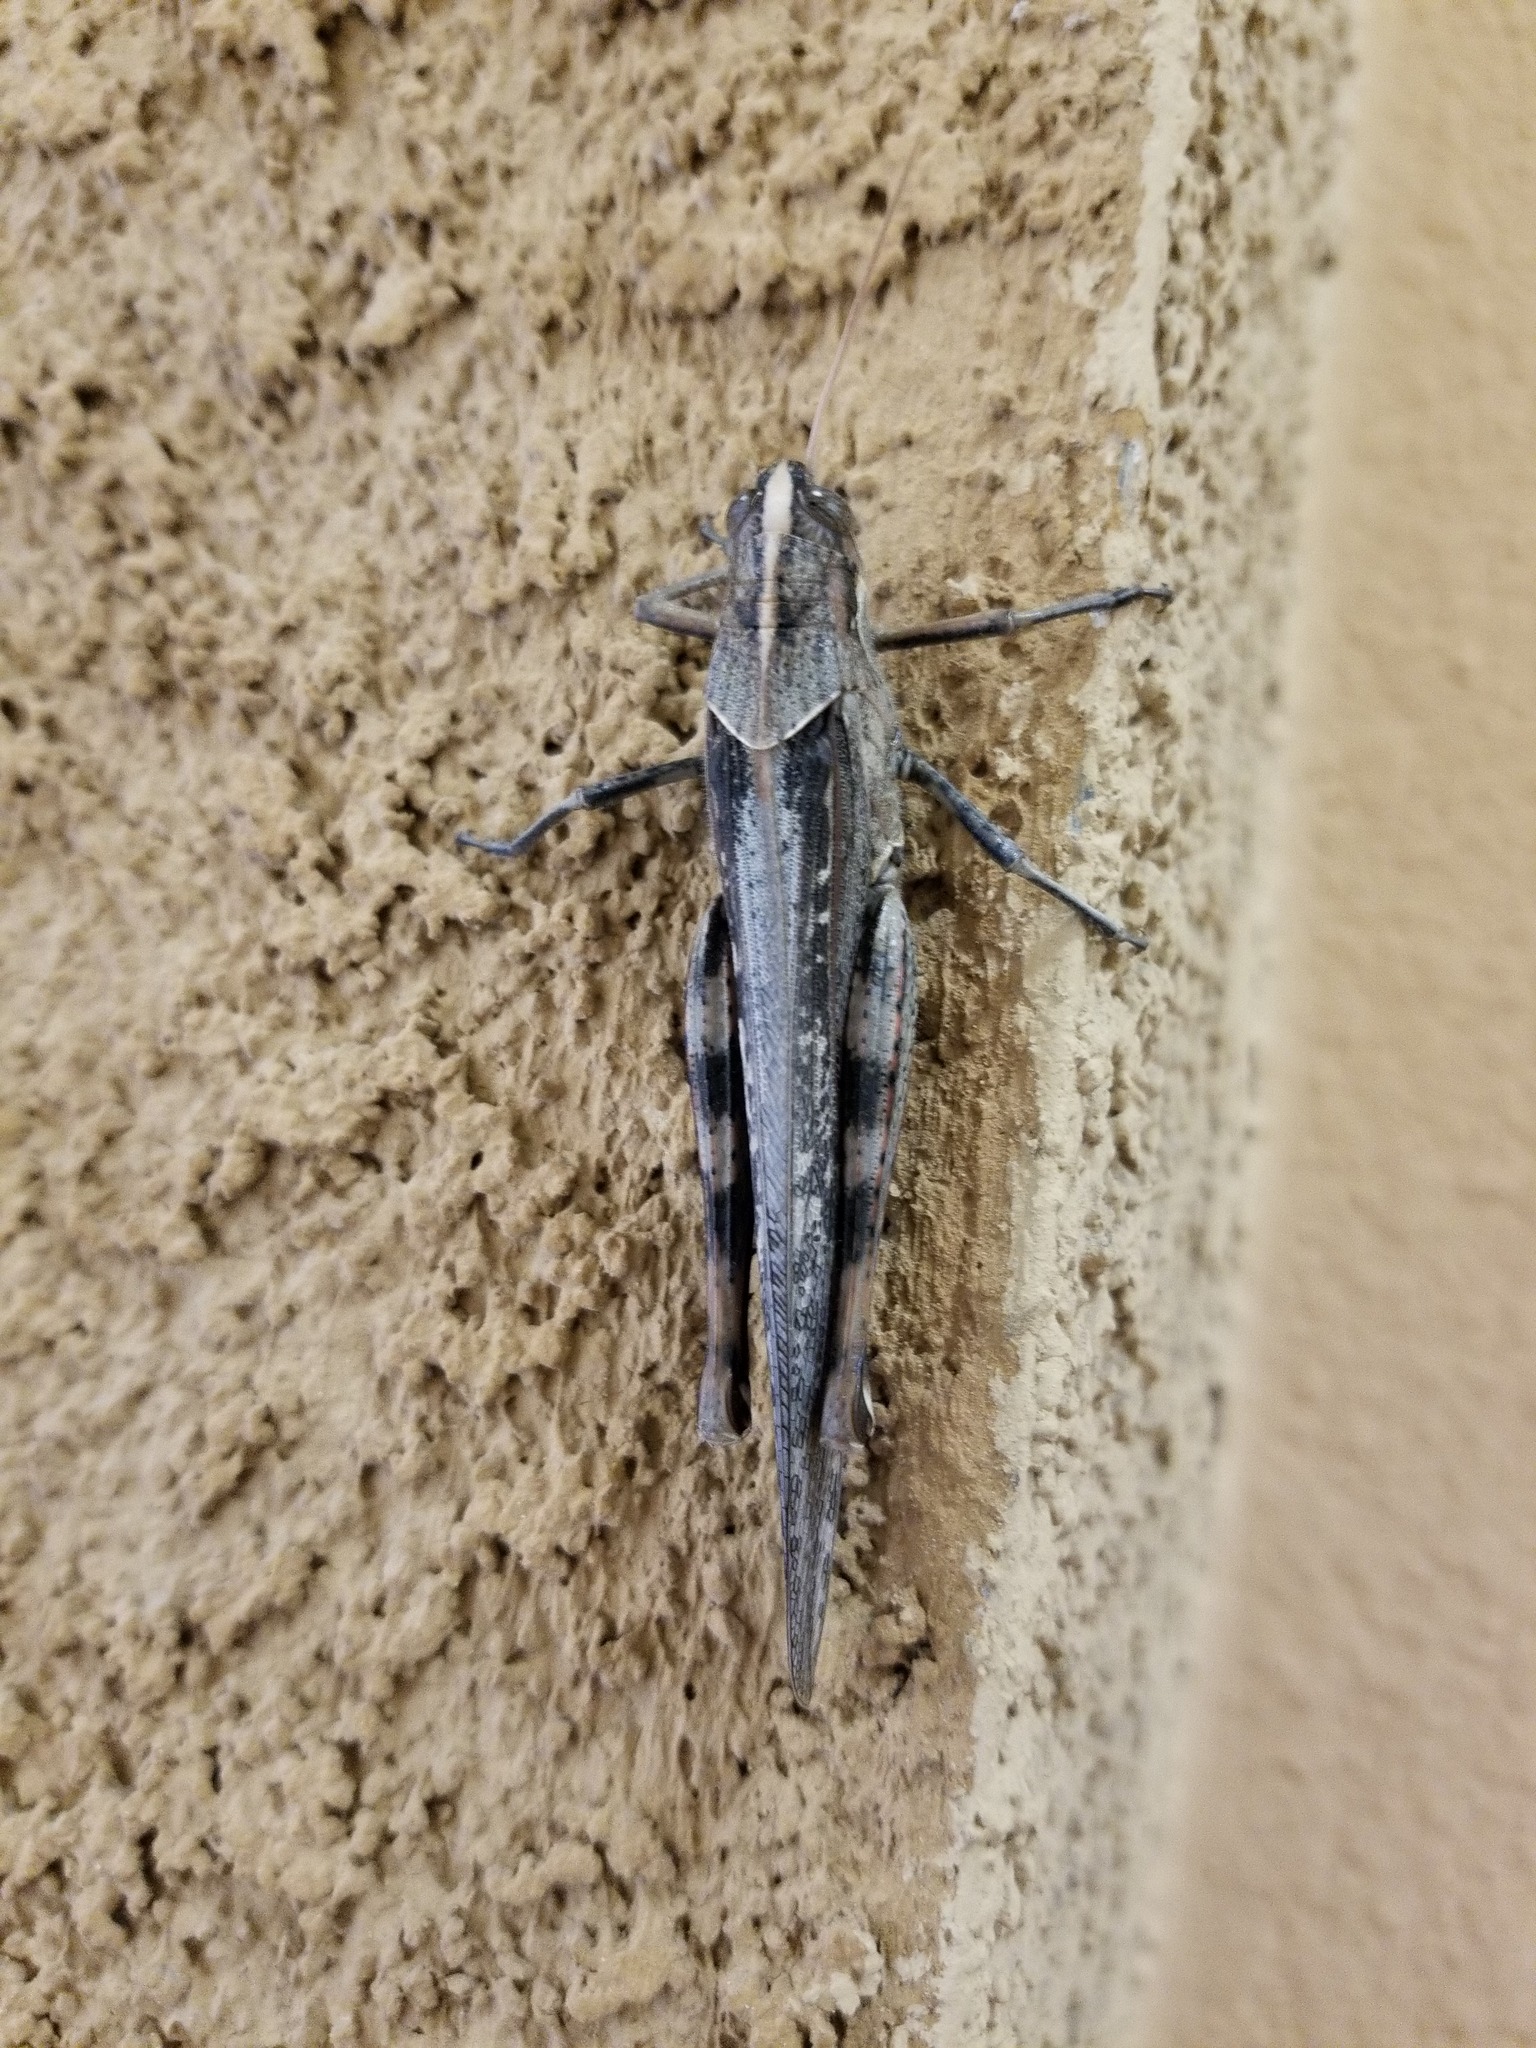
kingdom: Animalia
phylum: Arthropoda
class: Insecta
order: Orthoptera
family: Acrididae
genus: Schistocerca
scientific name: Schistocerca nitens
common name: Vagrant grasshopper
